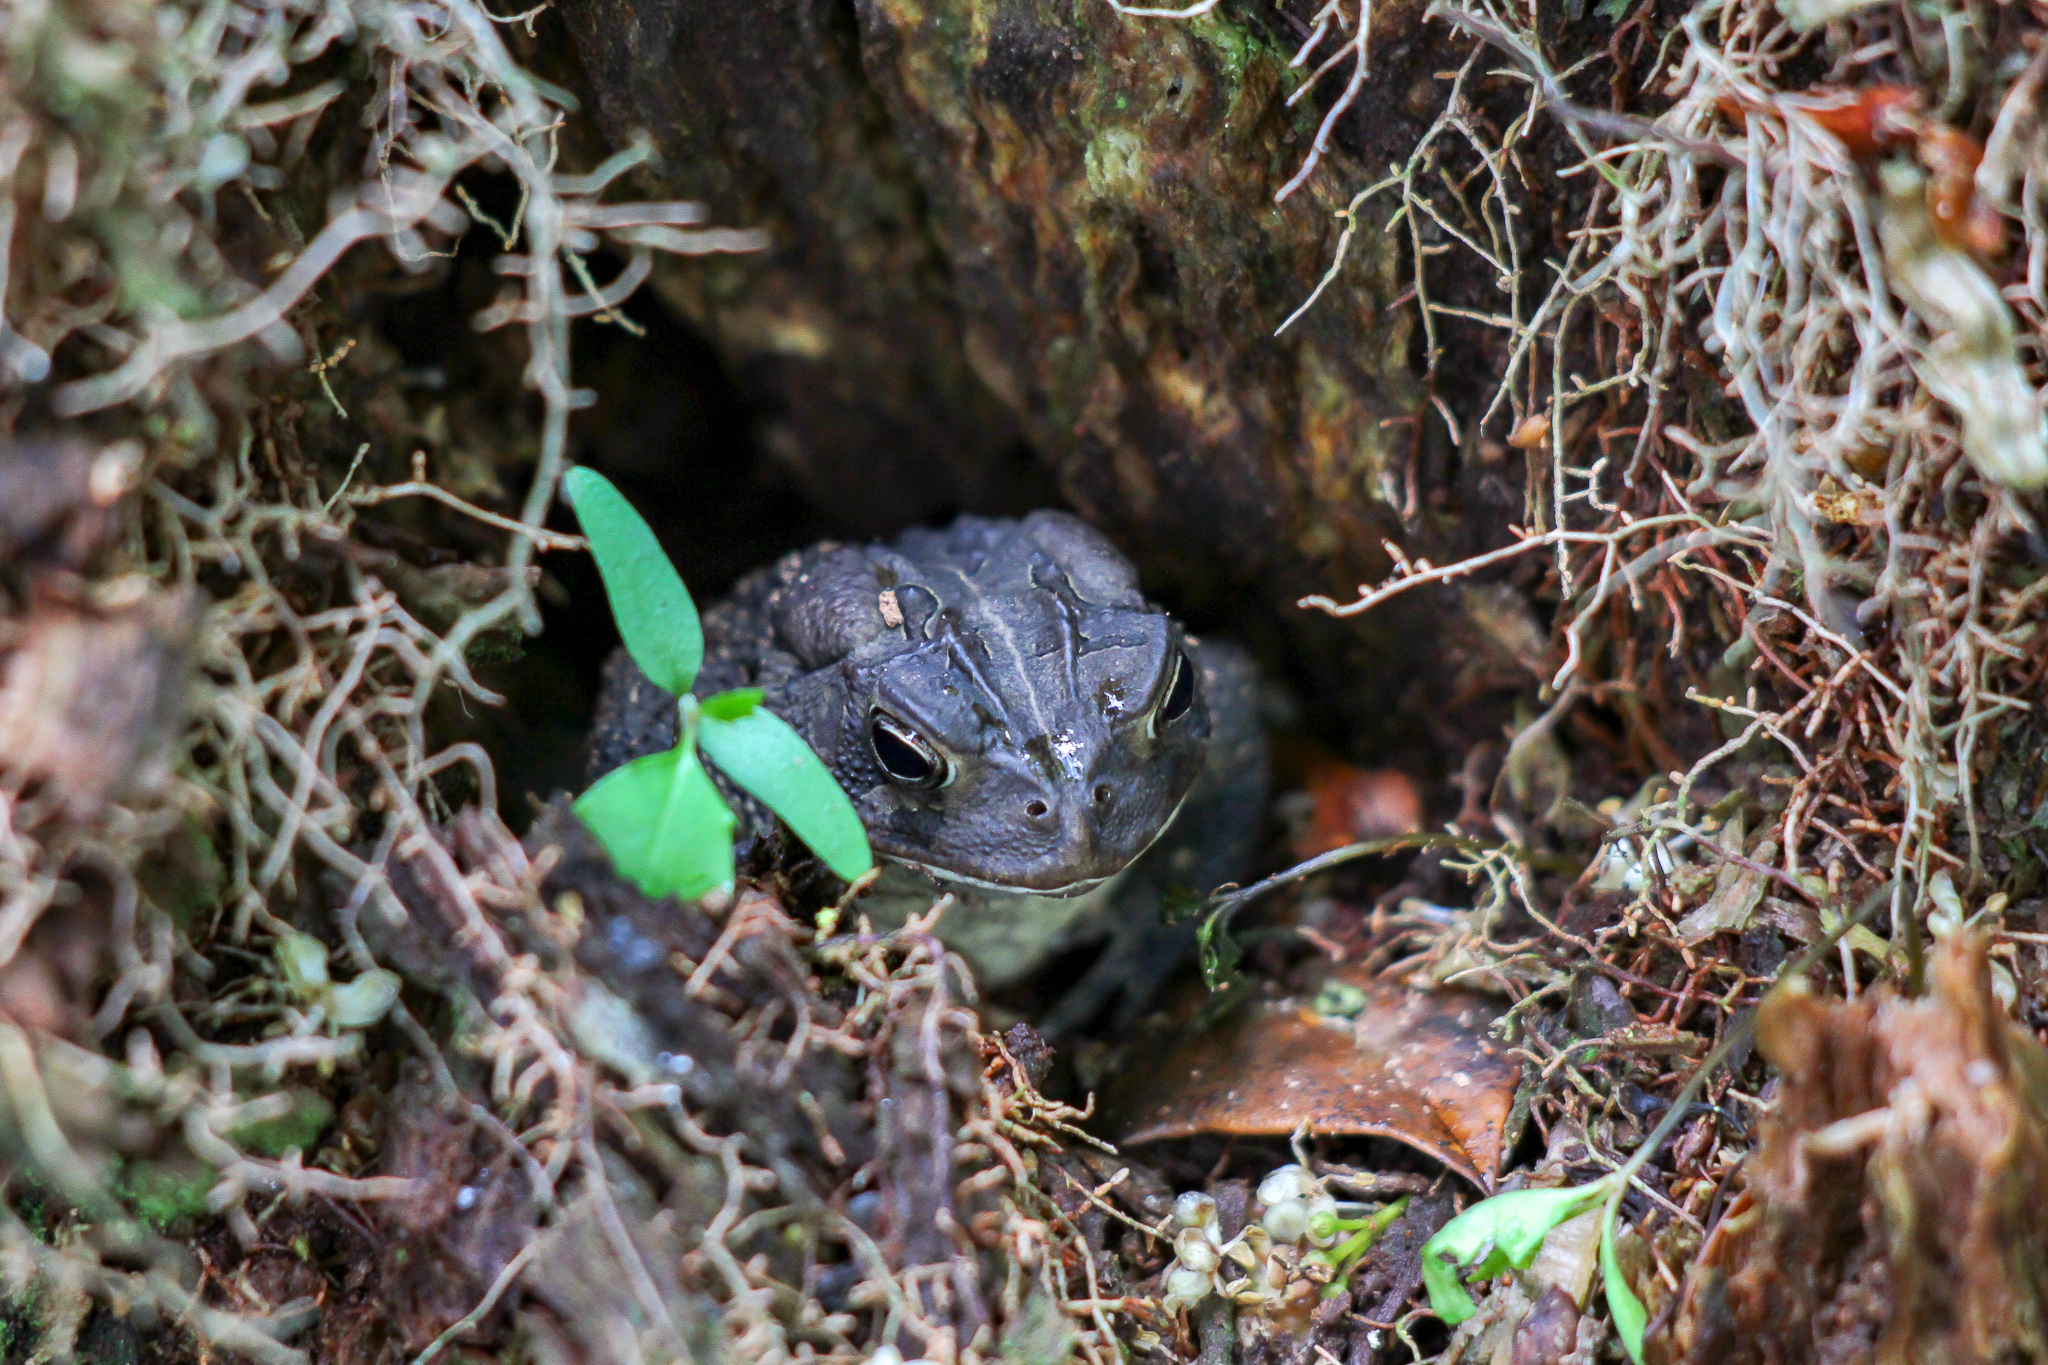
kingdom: Animalia
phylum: Chordata
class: Amphibia
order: Anura
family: Bufonidae
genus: Anaxyrus
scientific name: Anaxyrus terrestris
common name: Southern toad
